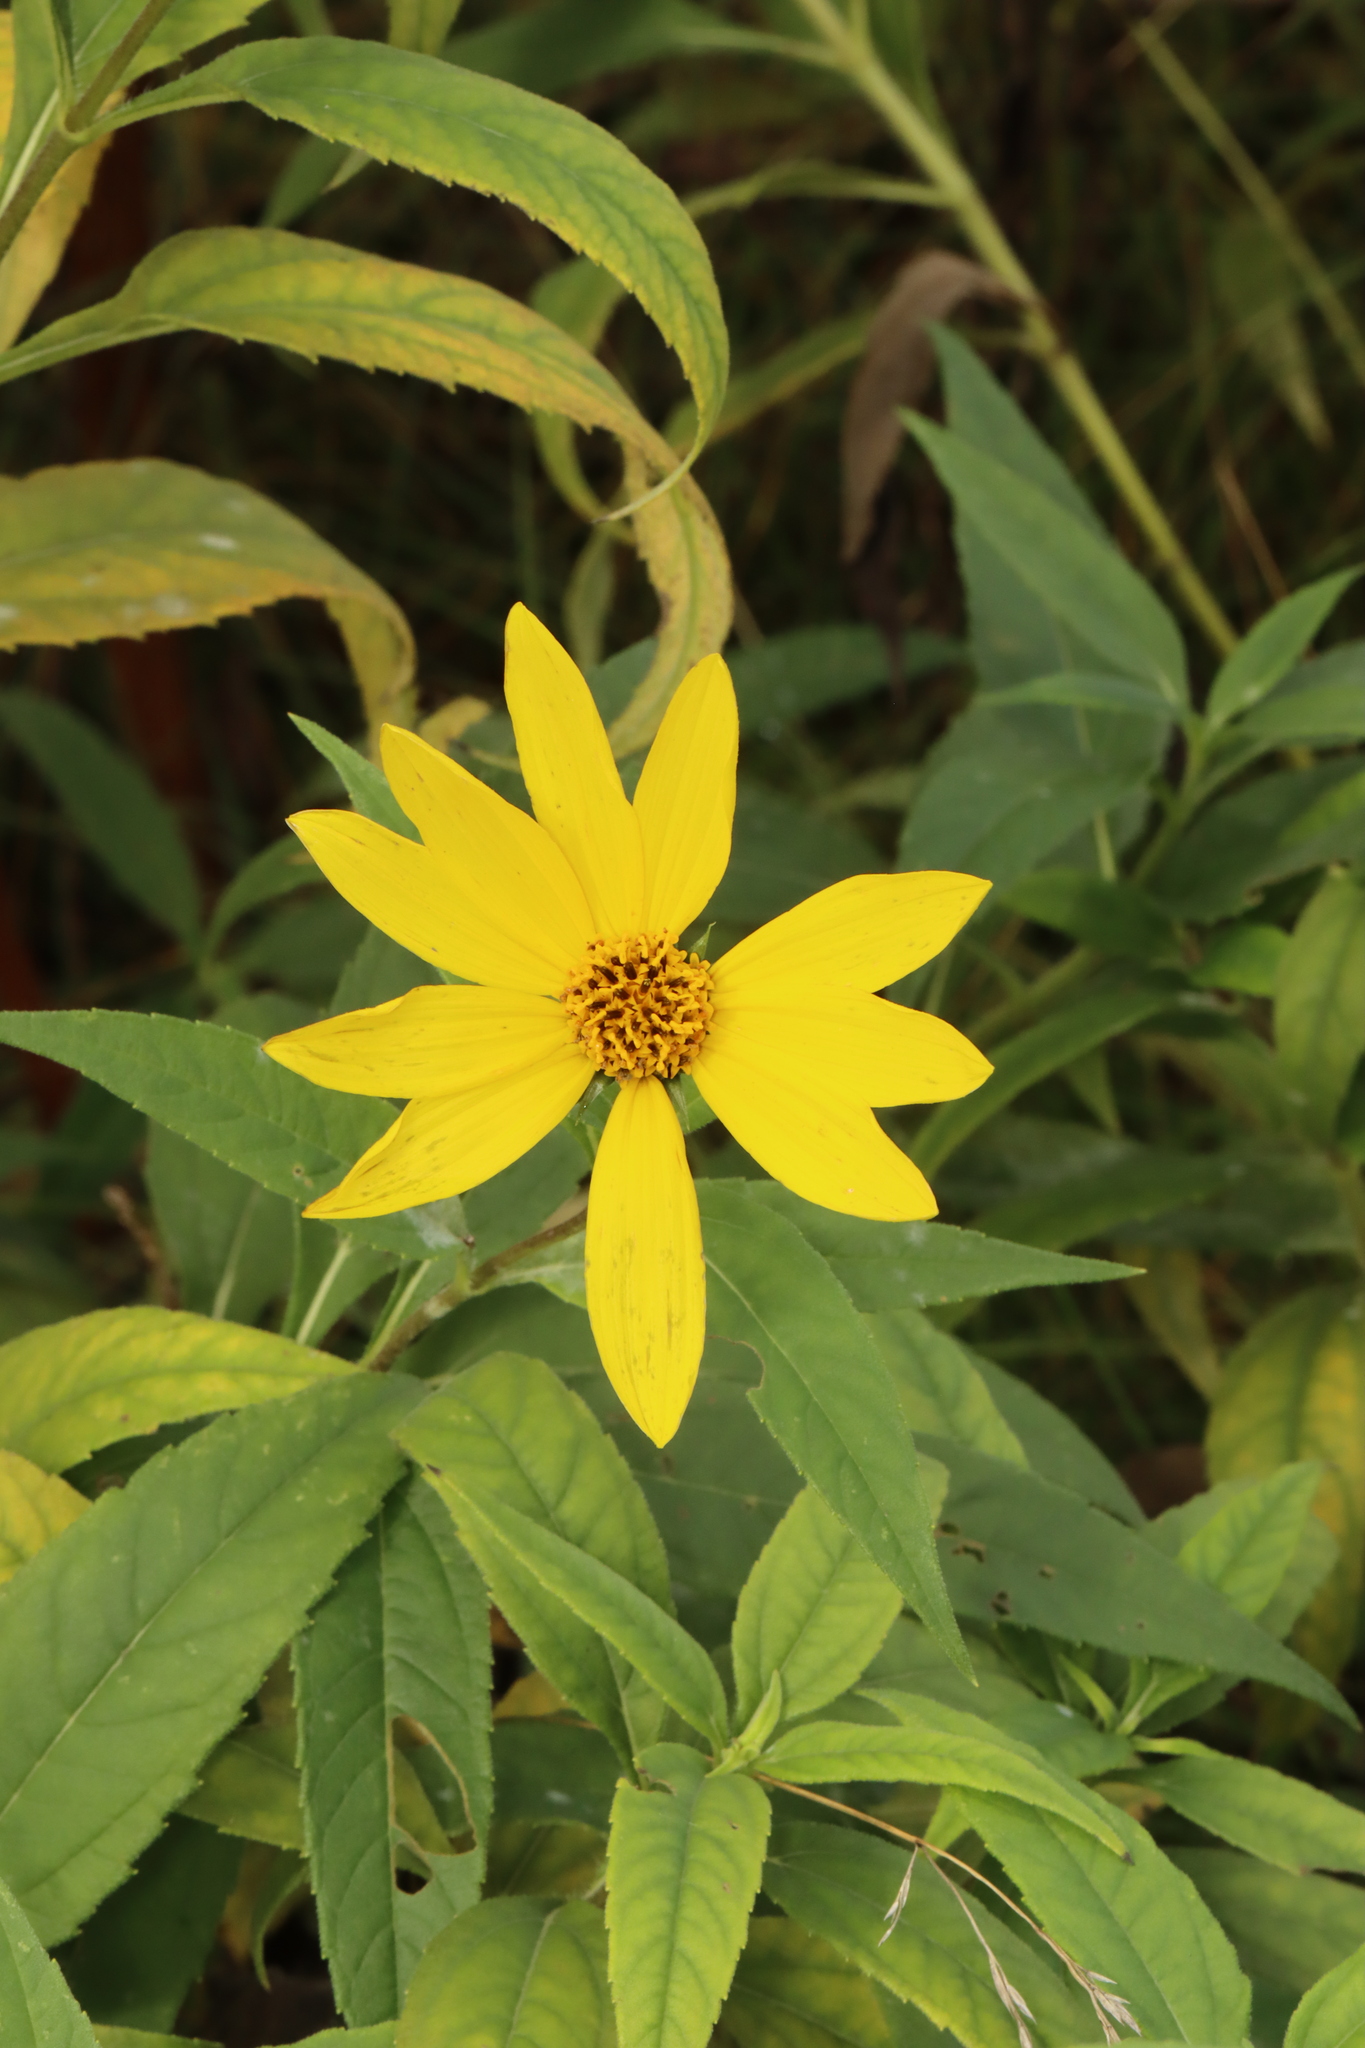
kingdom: Plantae
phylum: Tracheophyta
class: Magnoliopsida
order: Asterales
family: Asteraceae
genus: Helianthus
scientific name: Helianthus decapetalus
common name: Thin-leaved sunflower
